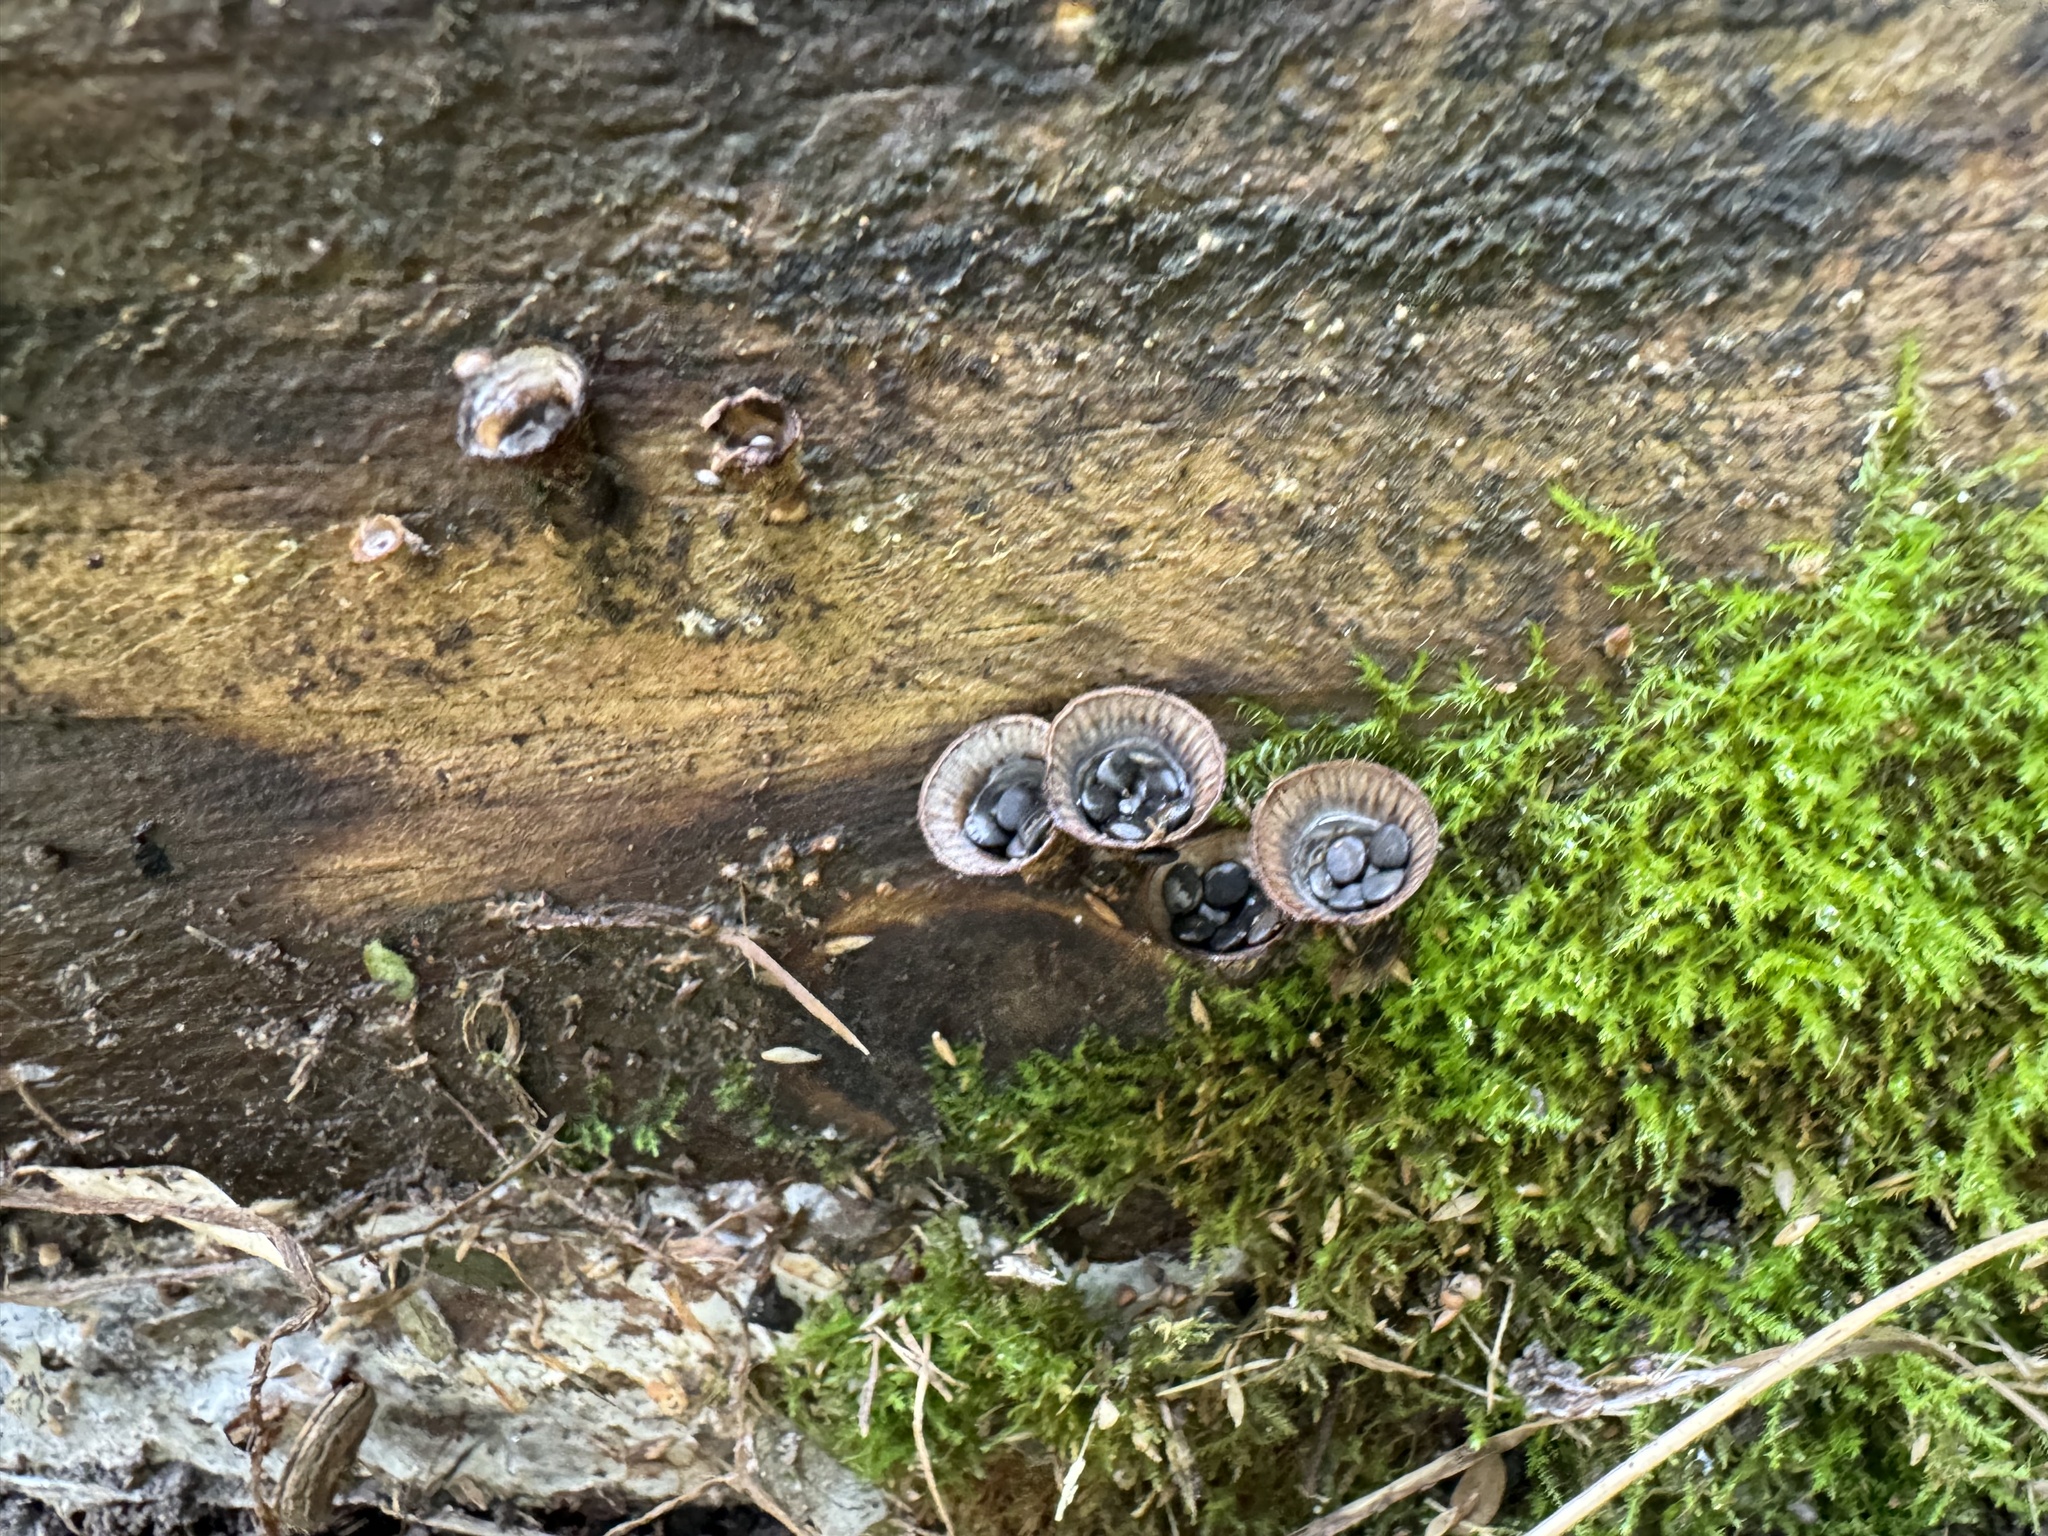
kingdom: Fungi
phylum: Basidiomycota
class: Agaricomycetes
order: Agaricales
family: Agaricaceae
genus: Cyathus
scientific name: Cyathus striatus
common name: Fluted bird's nest
